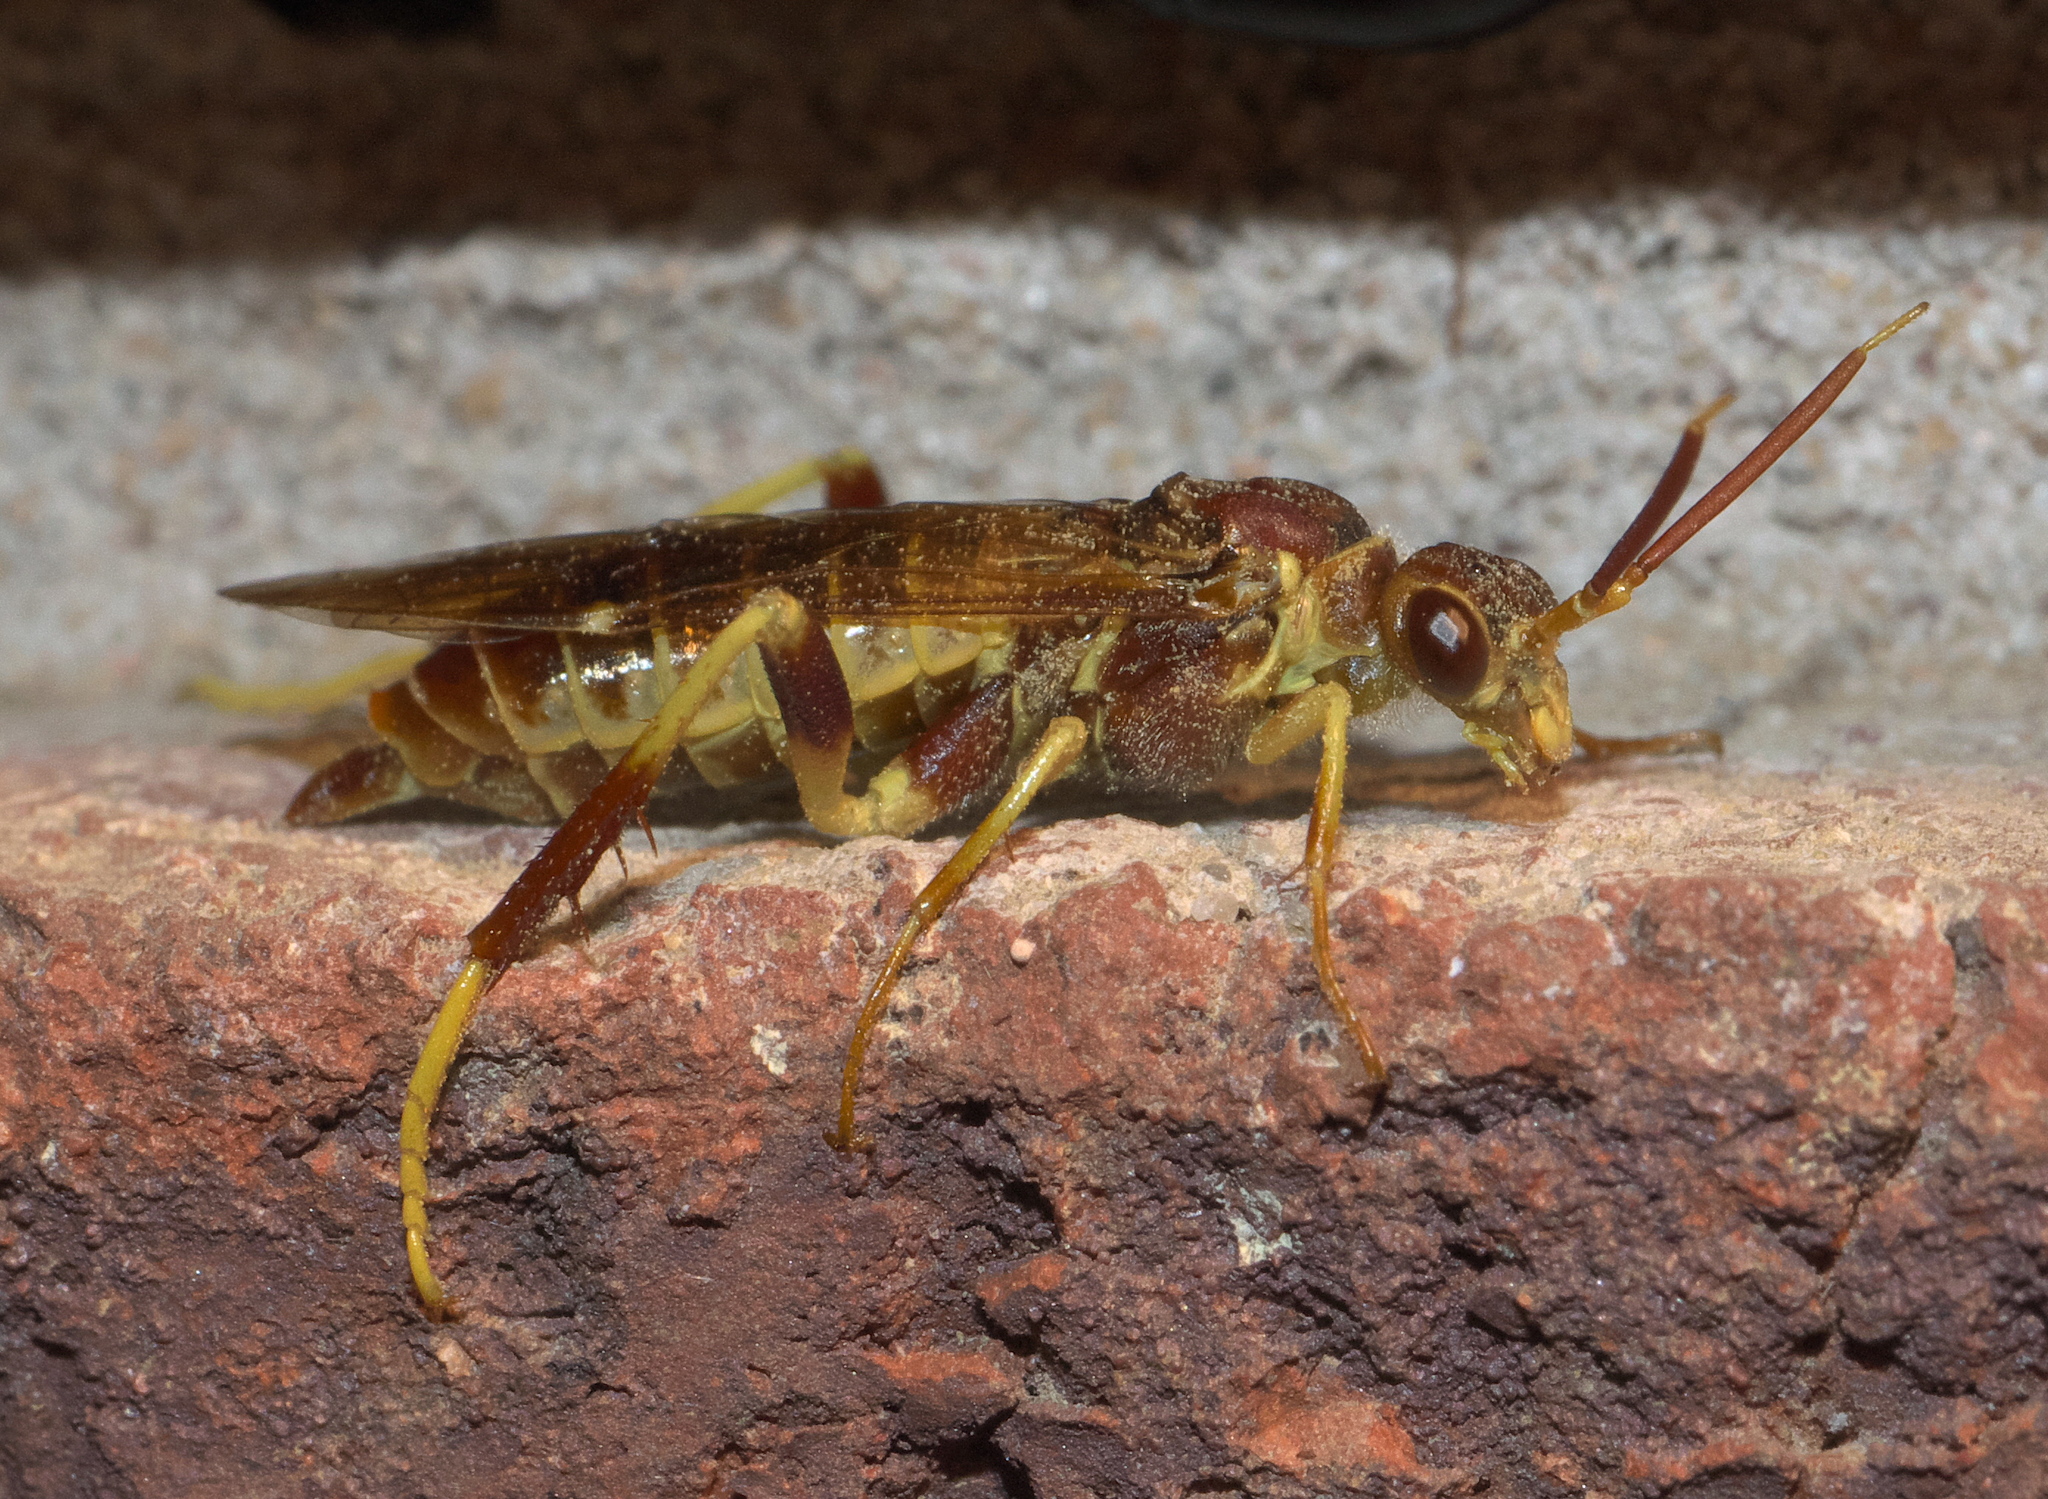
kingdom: Animalia
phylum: Arthropoda
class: Insecta
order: Hymenoptera
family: Xyelidae
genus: Megaxyela
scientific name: Megaxyela major
